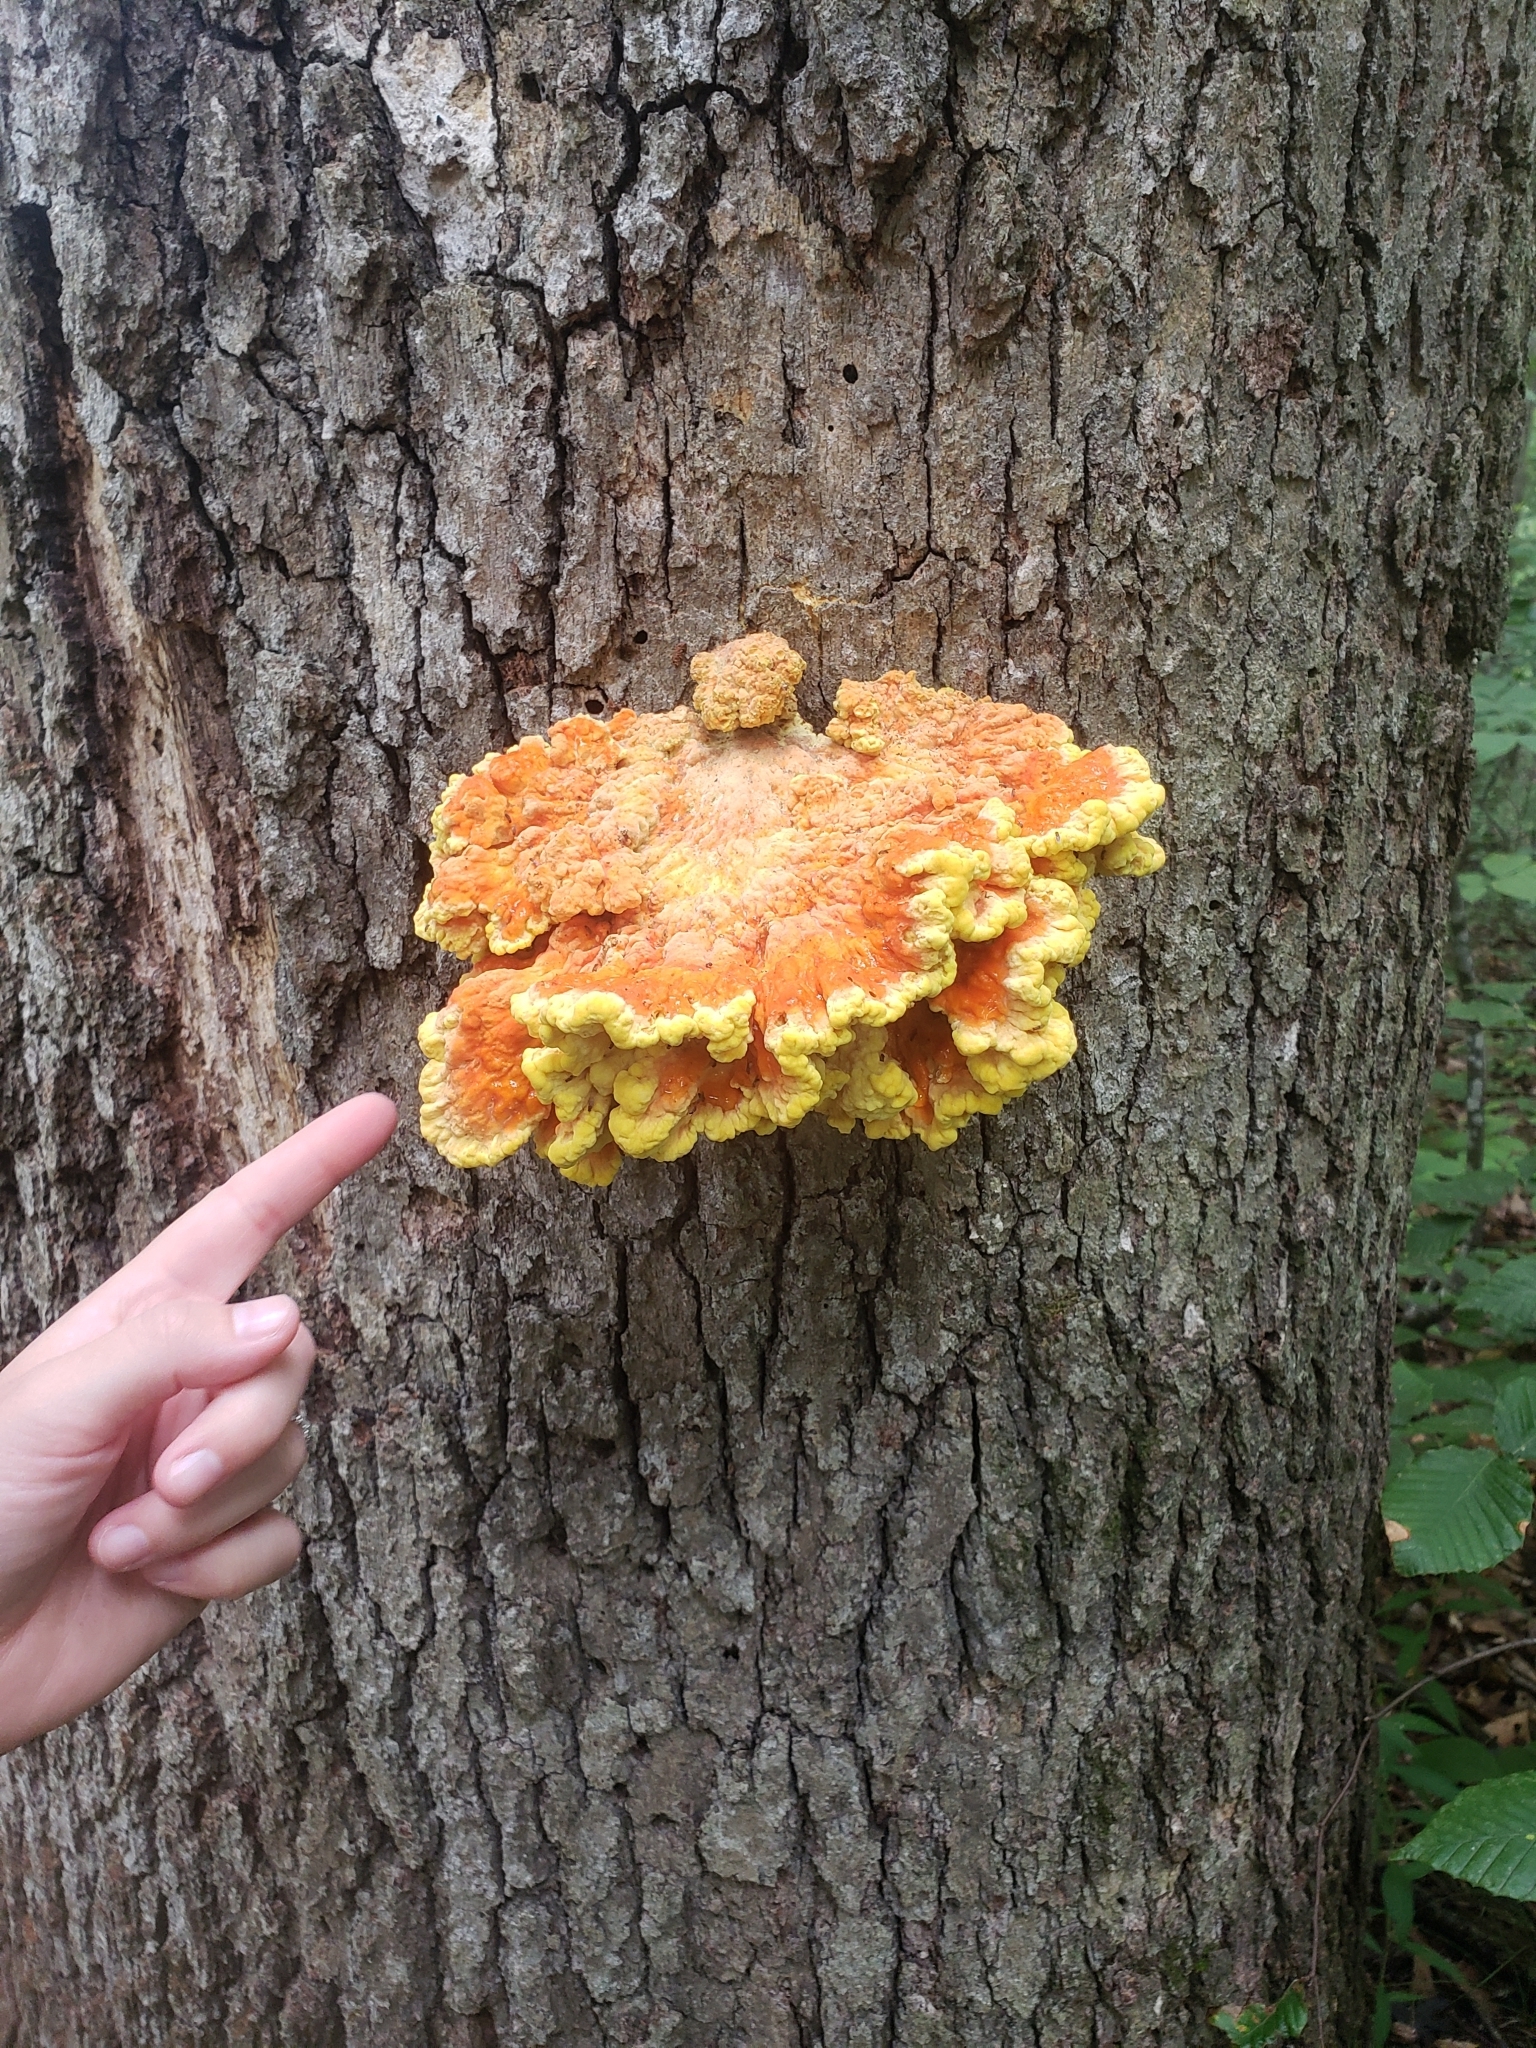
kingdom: Fungi
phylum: Basidiomycota
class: Agaricomycetes
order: Polyporales
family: Laetiporaceae
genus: Laetiporus
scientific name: Laetiporus sulphureus
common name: Chicken of the woods
